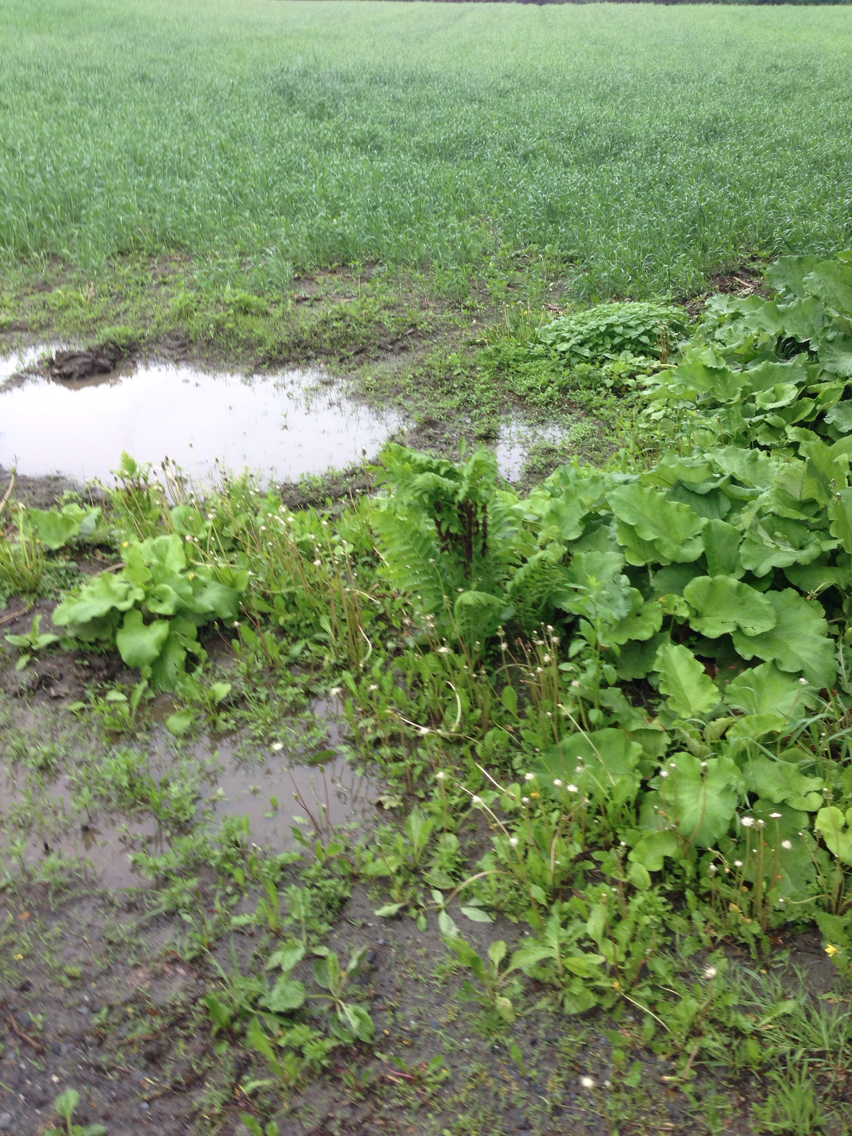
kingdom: Plantae
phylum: Tracheophyta
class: Polypodiopsida
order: Osmundales
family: Osmundaceae
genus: Claytosmunda
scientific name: Claytosmunda claytoniana
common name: Clayton's fern
